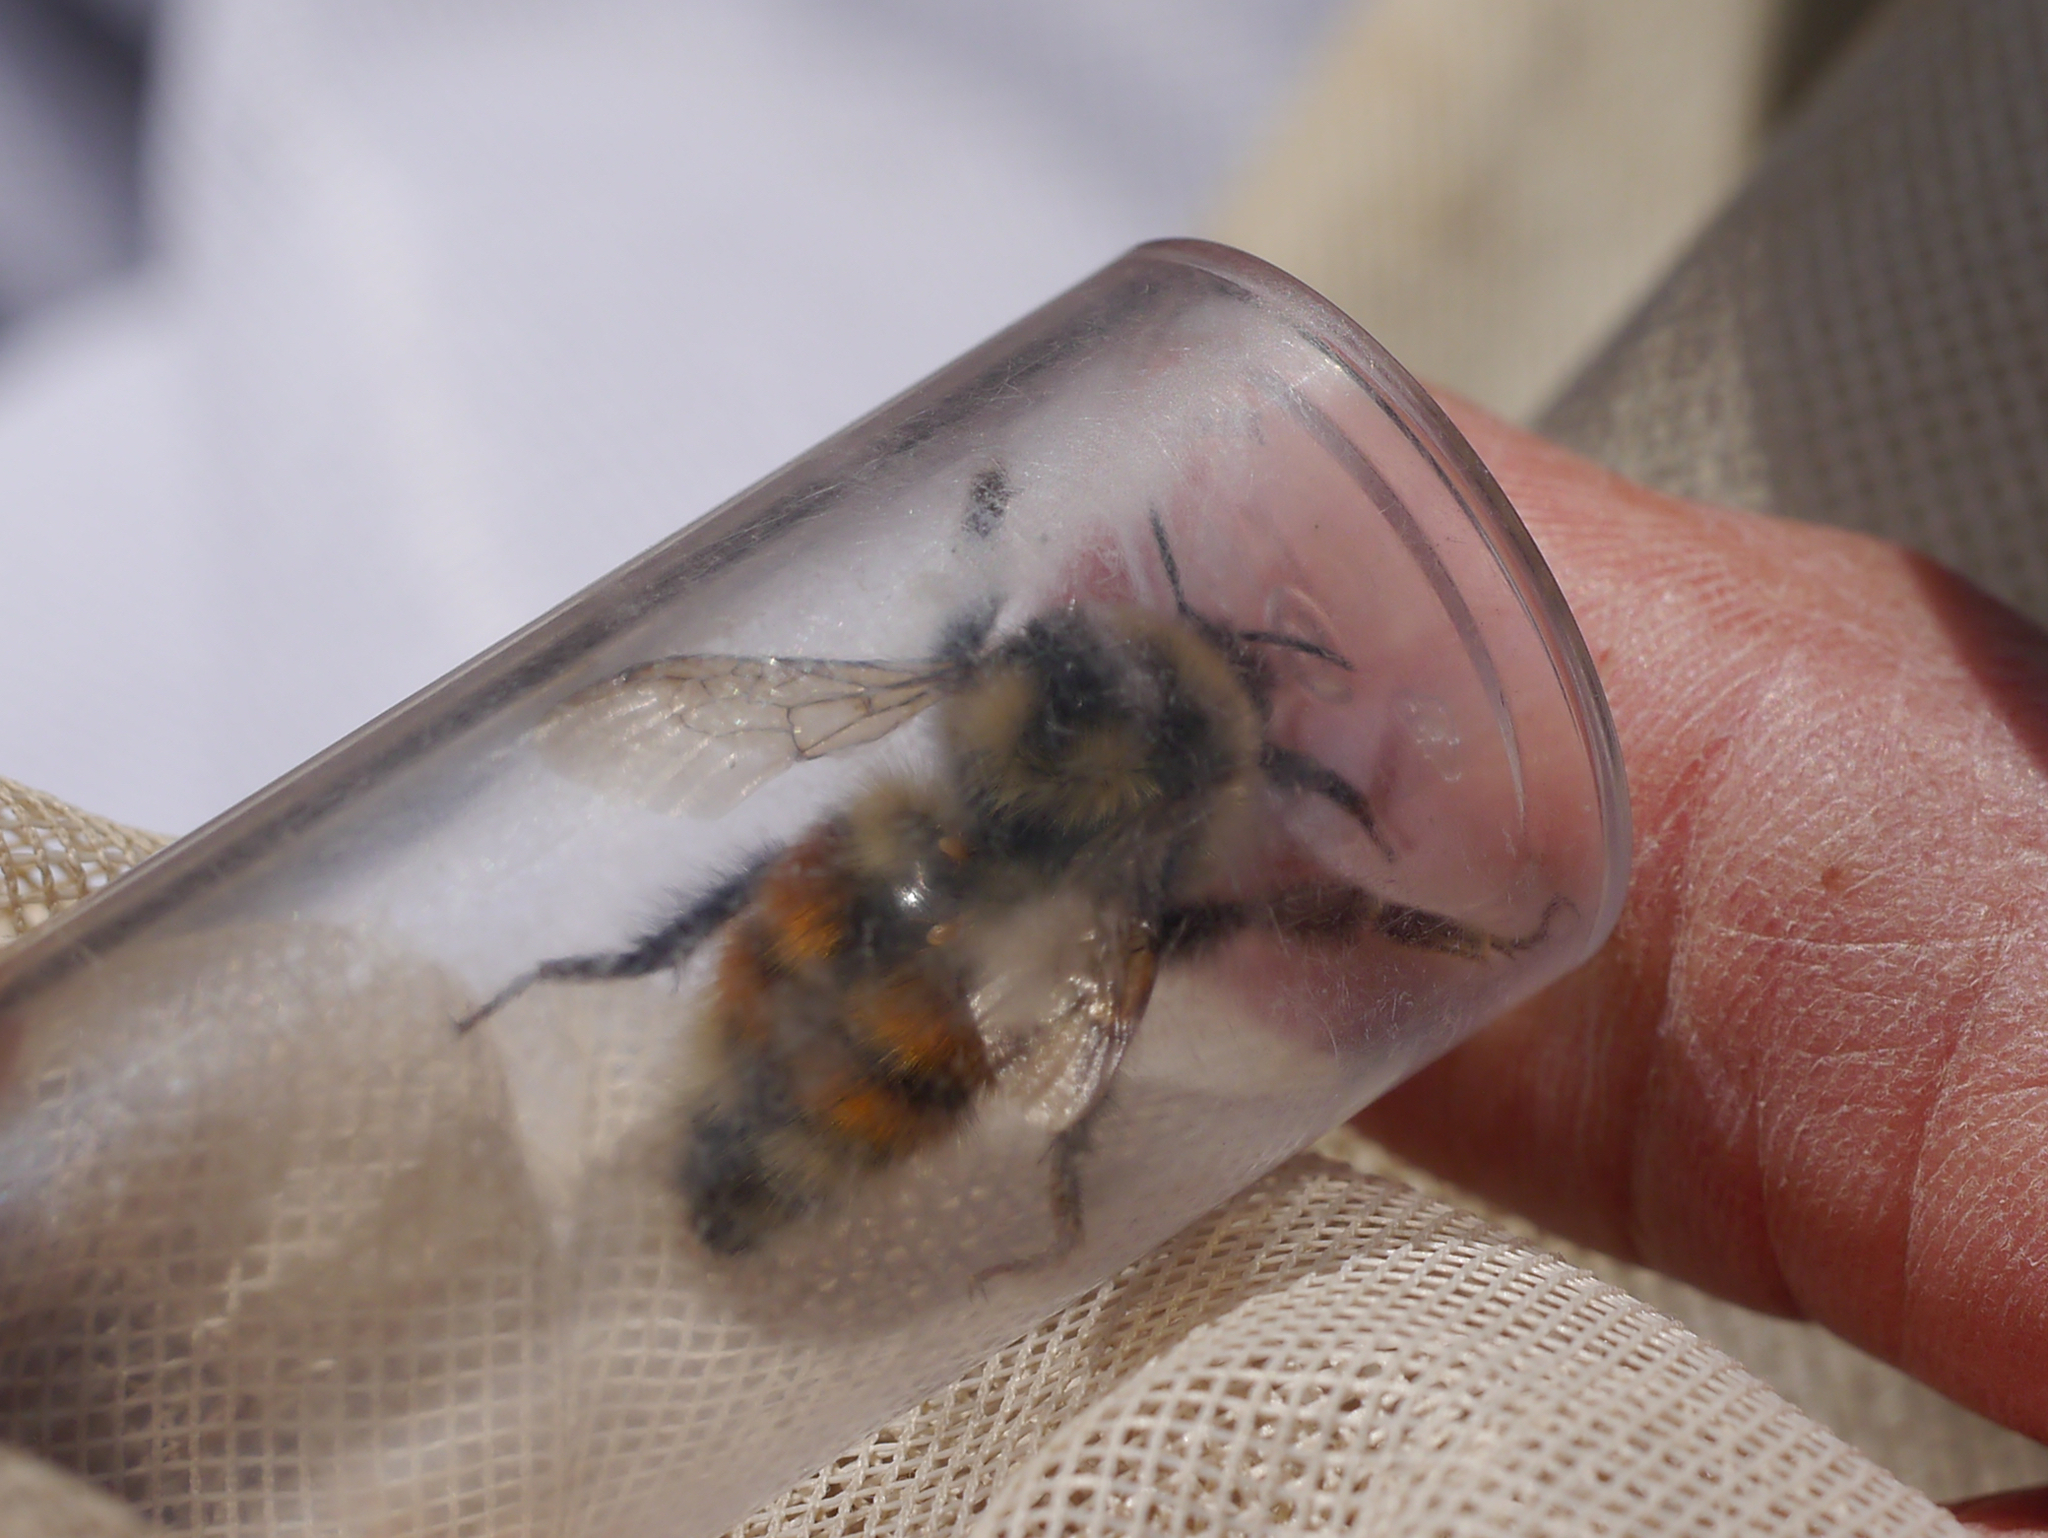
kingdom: Animalia
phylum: Arthropoda
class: Insecta
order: Hymenoptera
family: Apidae
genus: Bombus
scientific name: Bombus sylvicola
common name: Forest bumble bee
